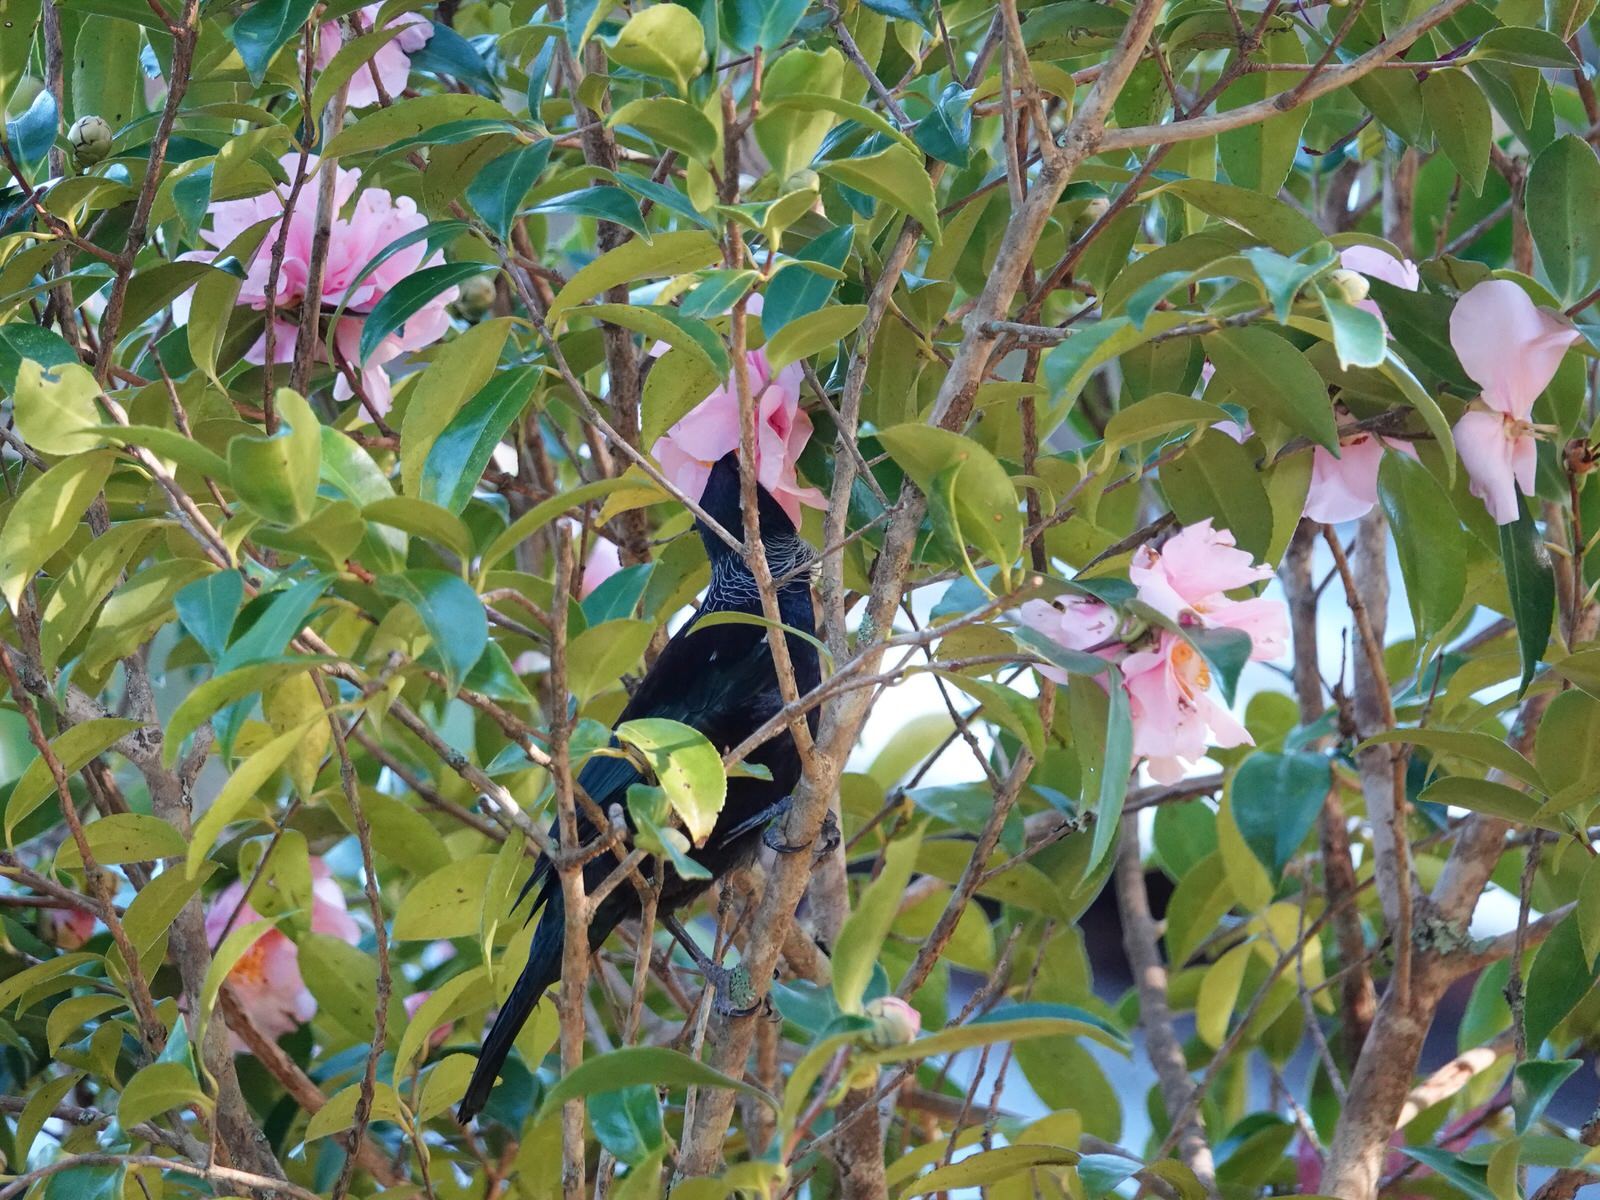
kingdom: Animalia
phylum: Chordata
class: Aves
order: Passeriformes
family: Meliphagidae
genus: Prosthemadera
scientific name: Prosthemadera novaeseelandiae
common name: Tui
